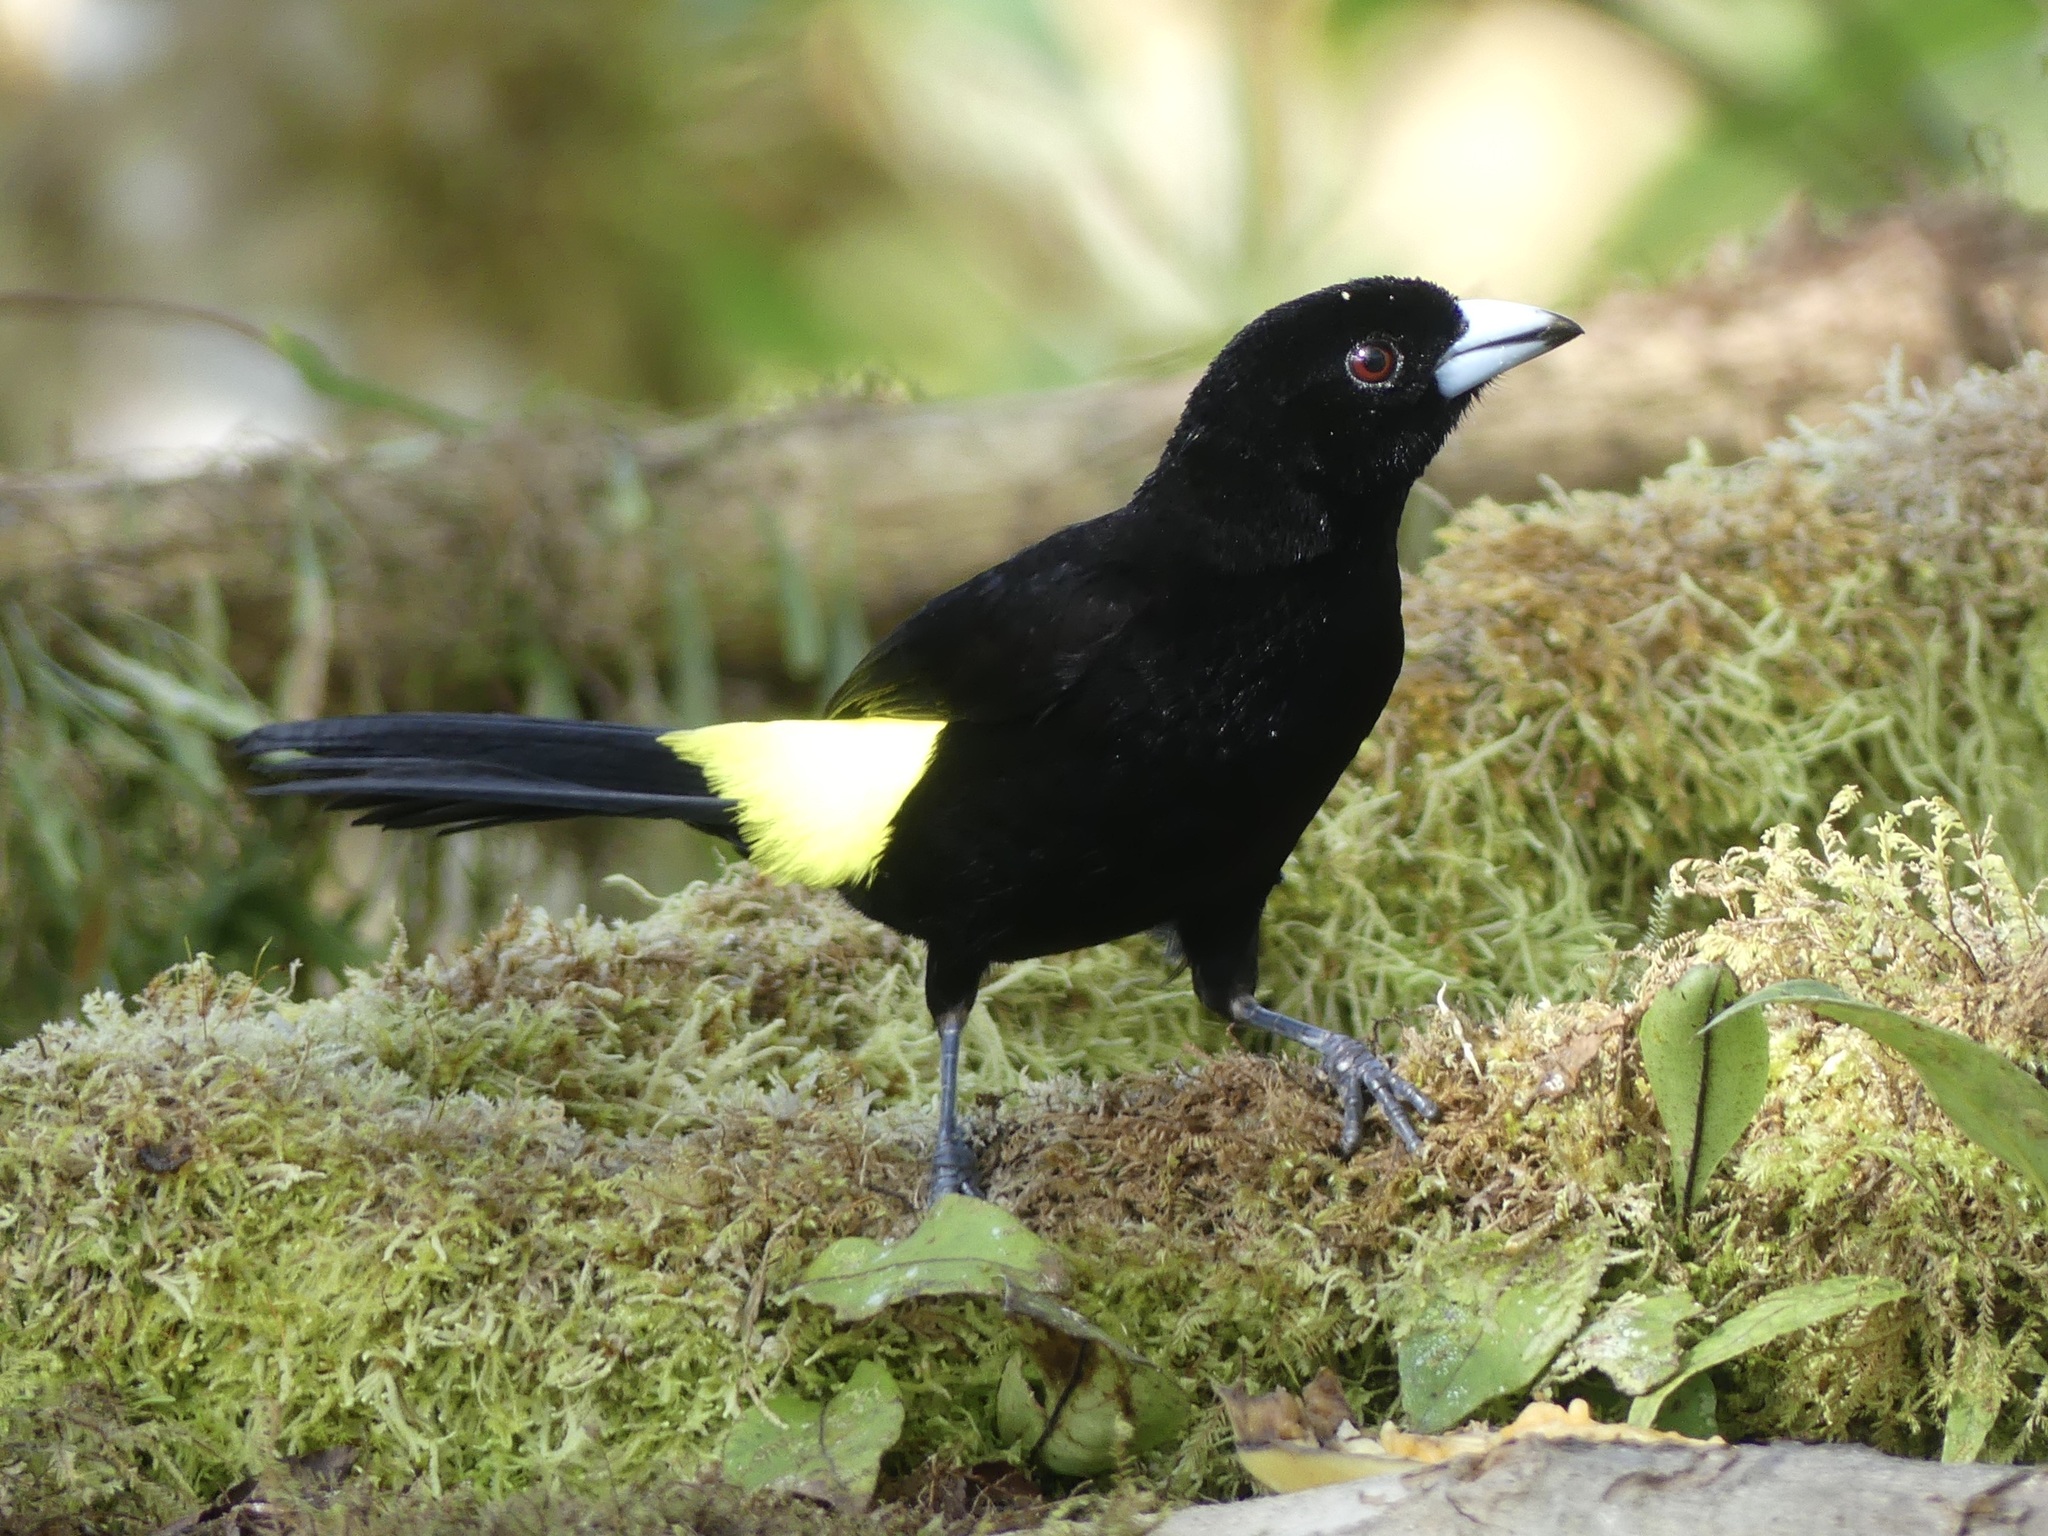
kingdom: Animalia
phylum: Chordata
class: Aves
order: Passeriformes
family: Thraupidae
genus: Ramphocelus
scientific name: Ramphocelus flammigerus
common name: Flame-rumped tanager
